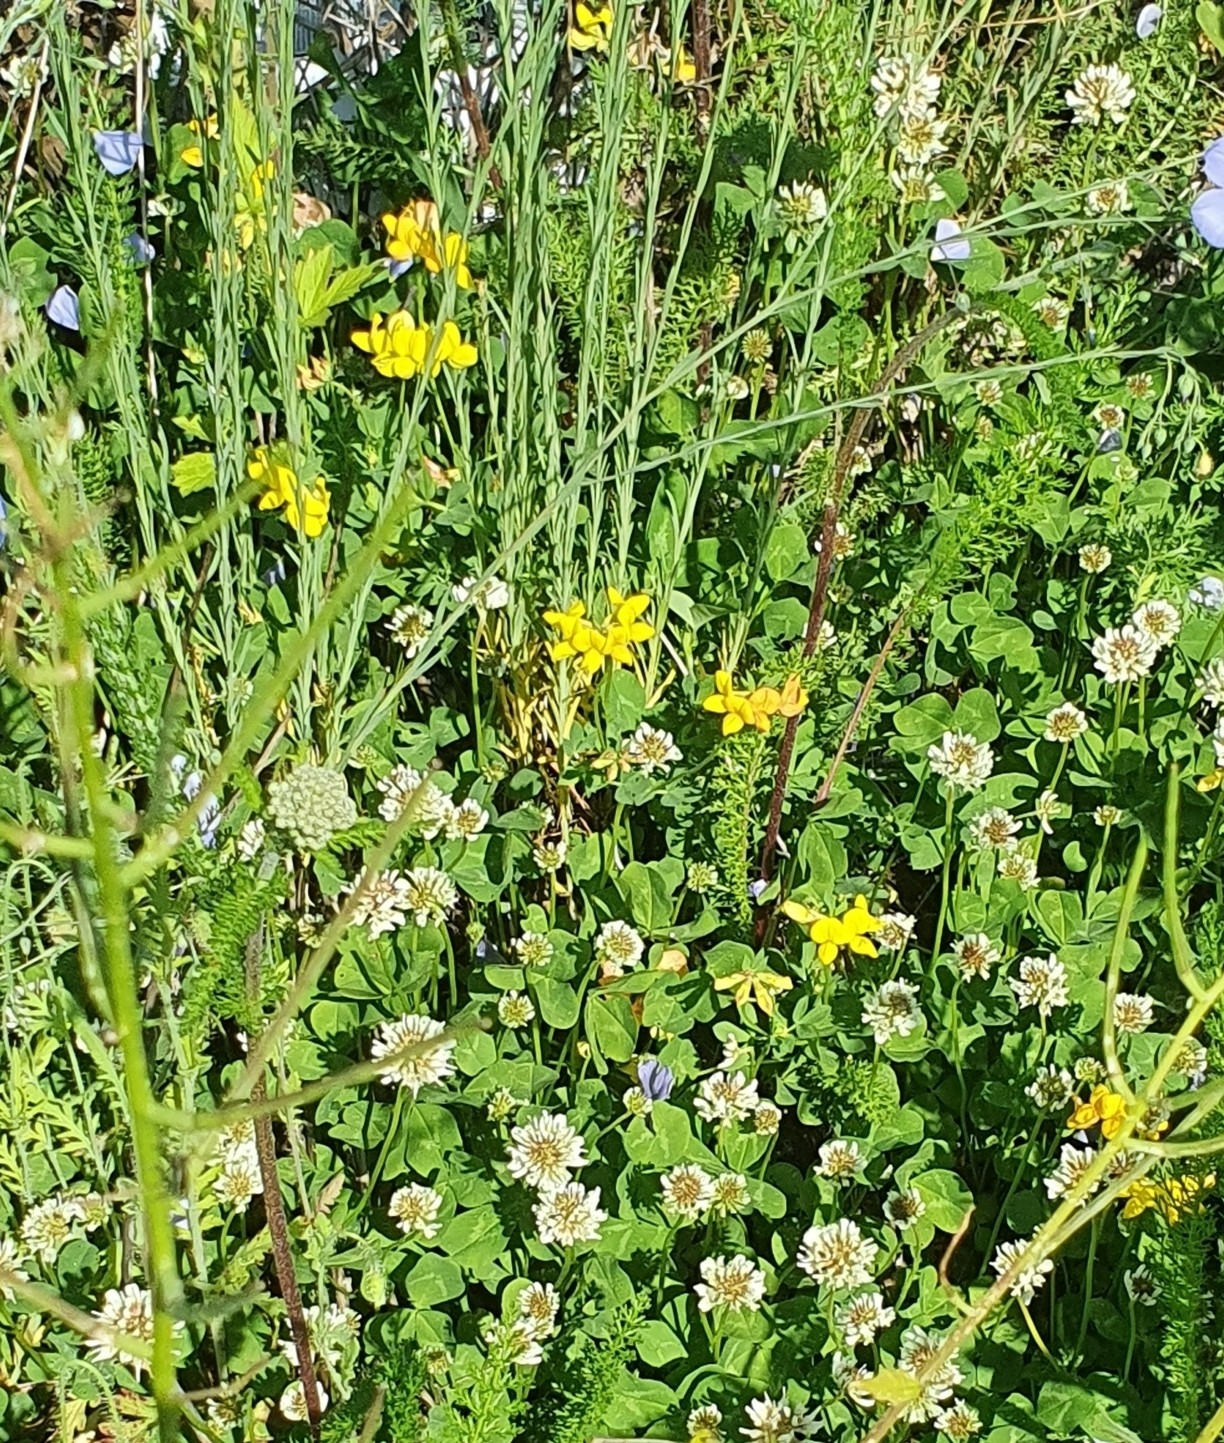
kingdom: Plantae
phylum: Tracheophyta
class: Magnoliopsida
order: Fabales
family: Fabaceae
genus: Lotus
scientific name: Lotus corniculatus
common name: Common bird's-foot-trefoil
